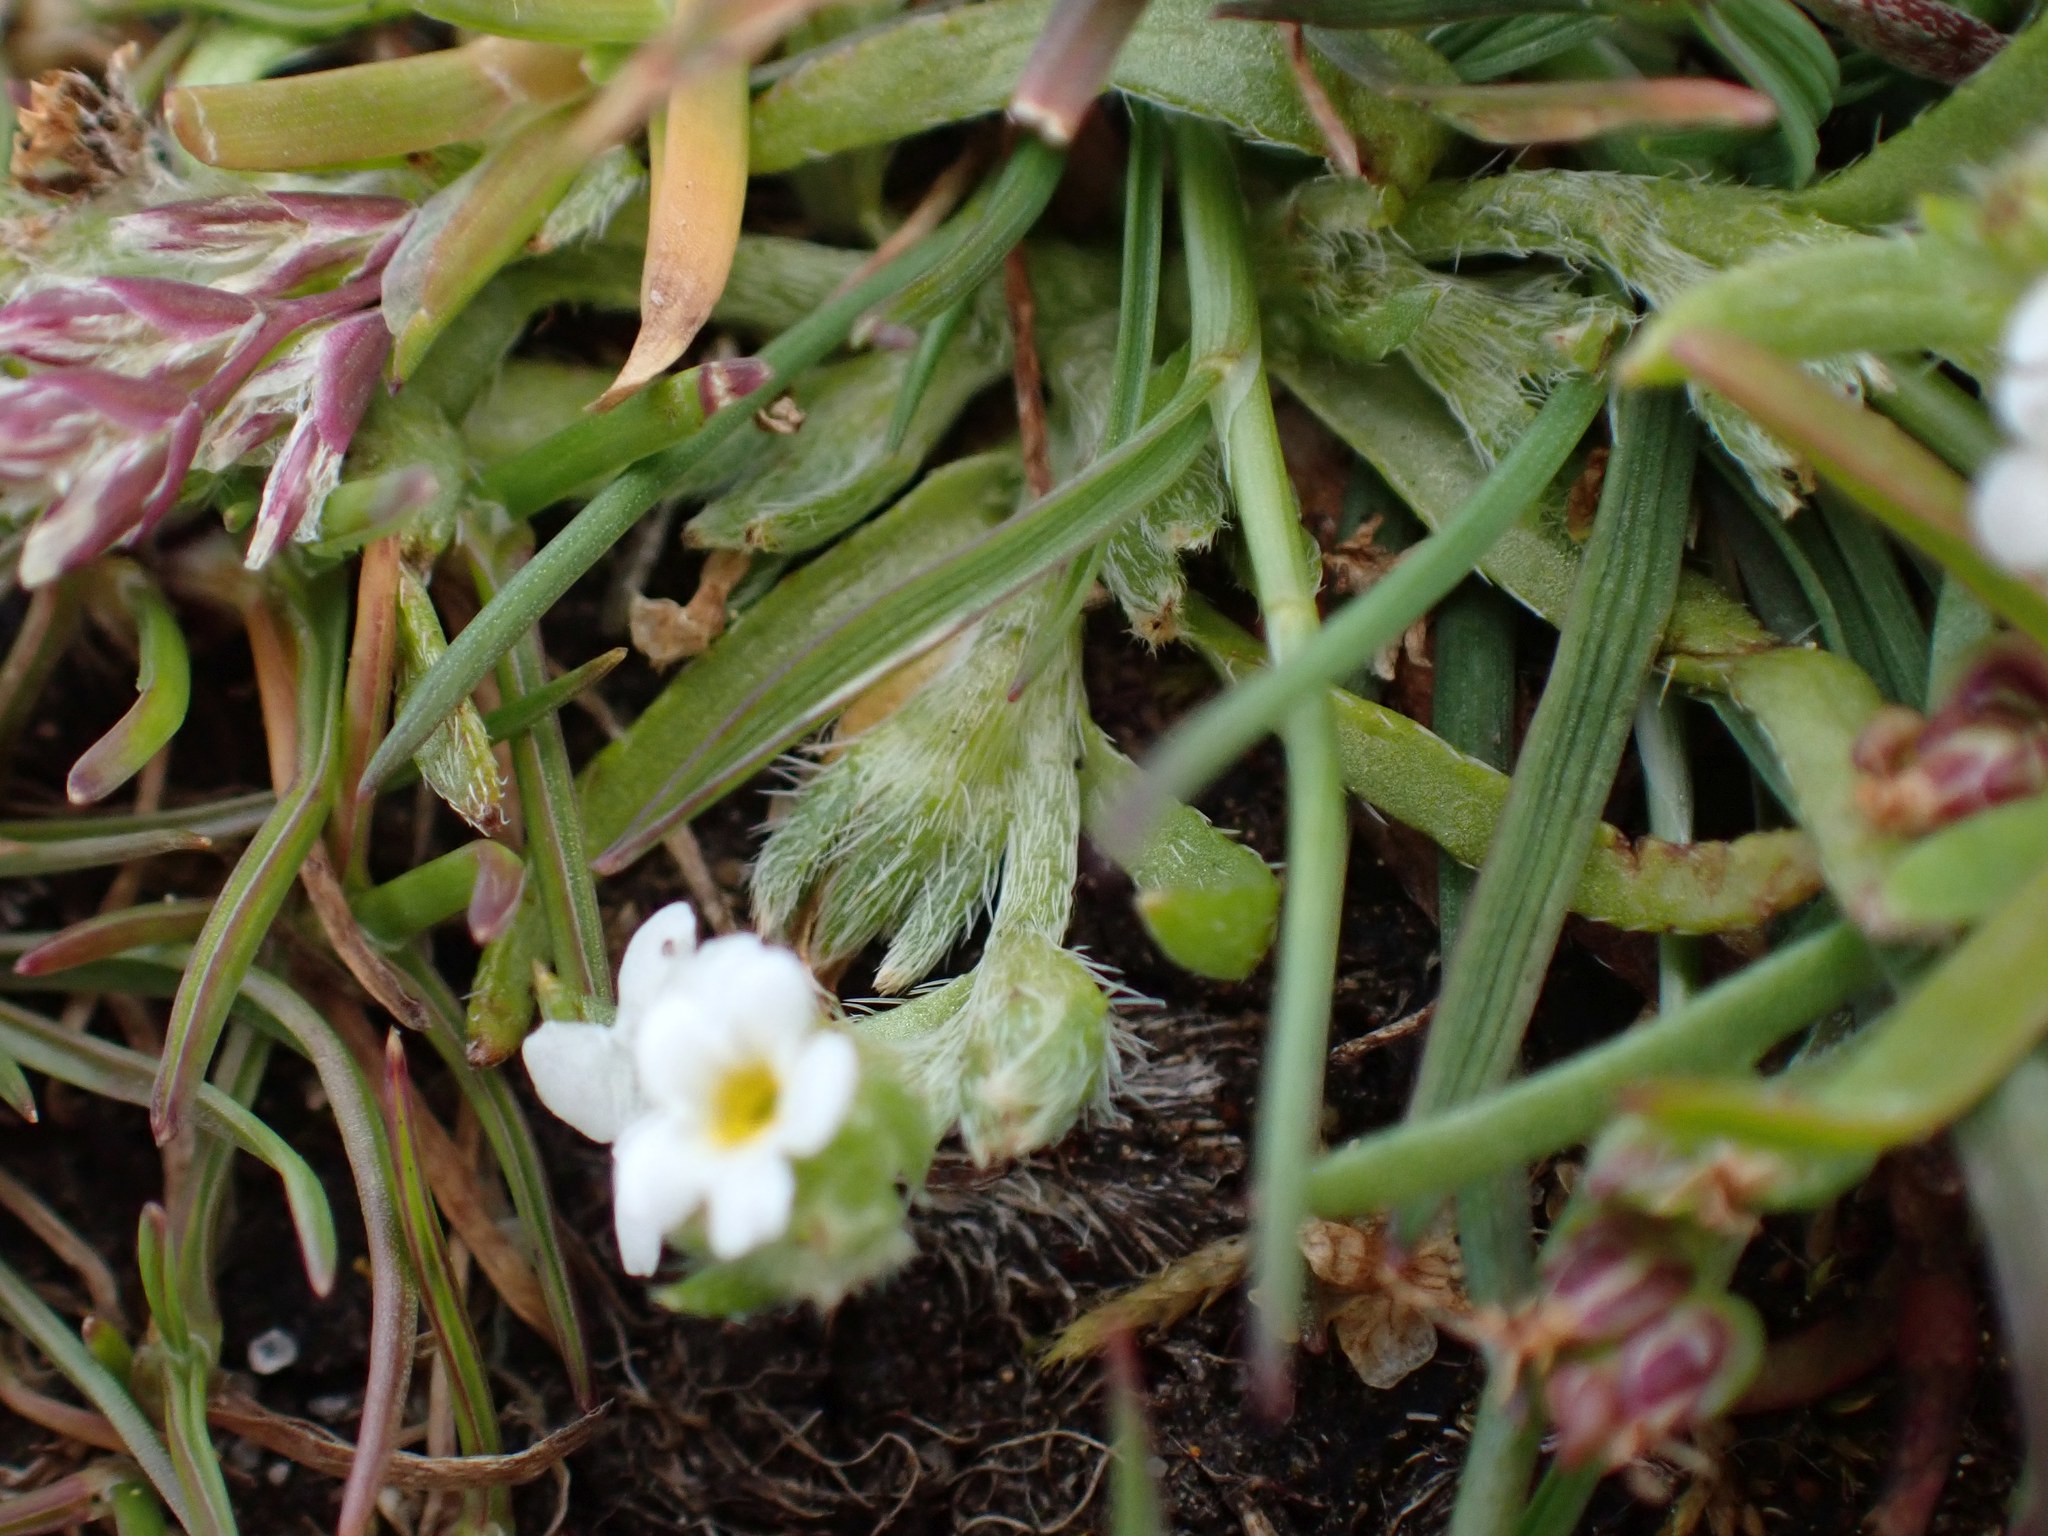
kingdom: Plantae
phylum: Tracheophyta
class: Magnoliopsida
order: Boraginales
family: Boraginaceae
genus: Plagiobothrys
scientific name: Plagiobothrys scouleri
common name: White forget-me-not
